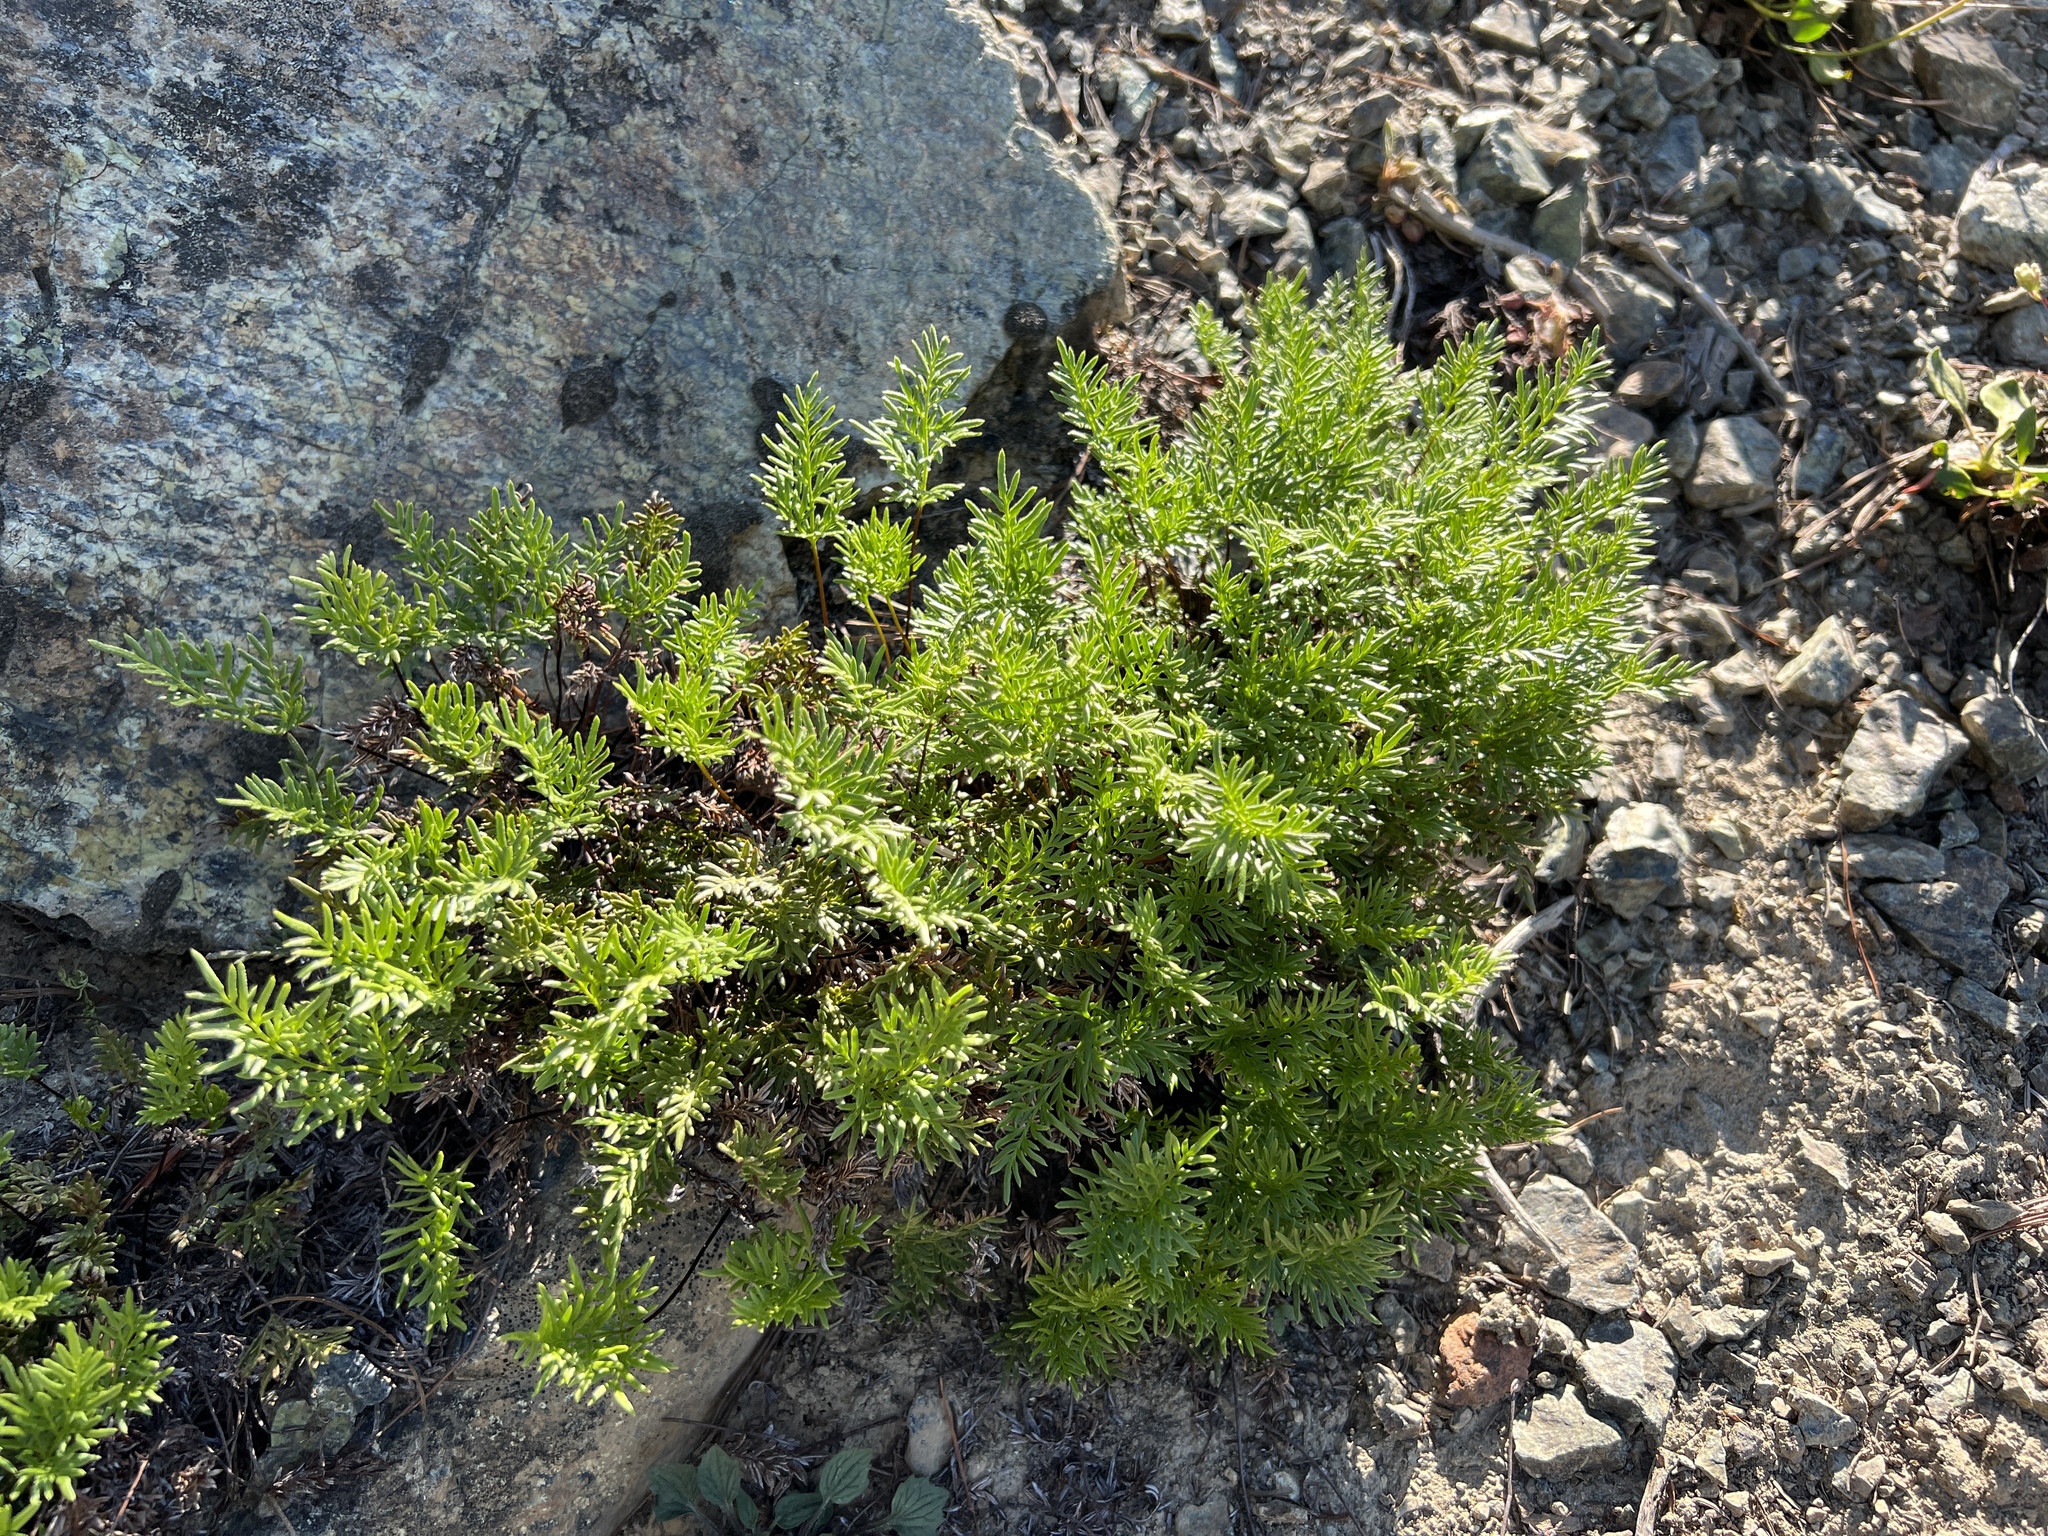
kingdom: Plantae
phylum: Tracheophyta
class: Polypodiopsida
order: Polypodiales
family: Pteridaceae
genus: Aspidotis
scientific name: Aspidotis densa
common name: Indian's dream
